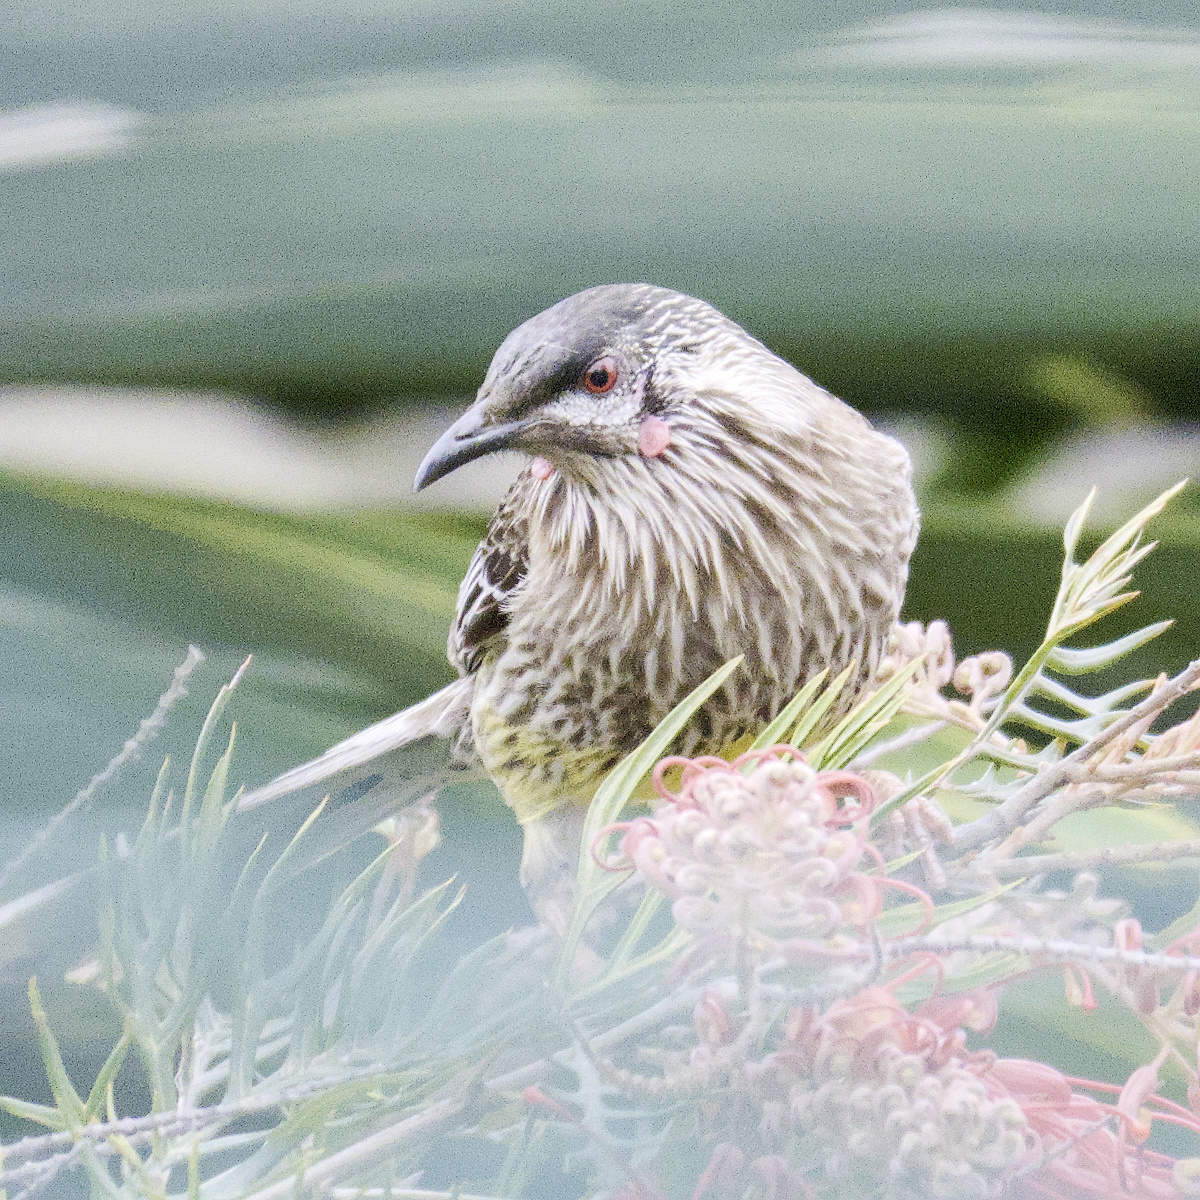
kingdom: Animalia
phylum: Chordata
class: Aves
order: Passeriformes
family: Meliphagidae
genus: Anthochaera
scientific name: Anthochaera carunculata
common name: Red wattlebird
